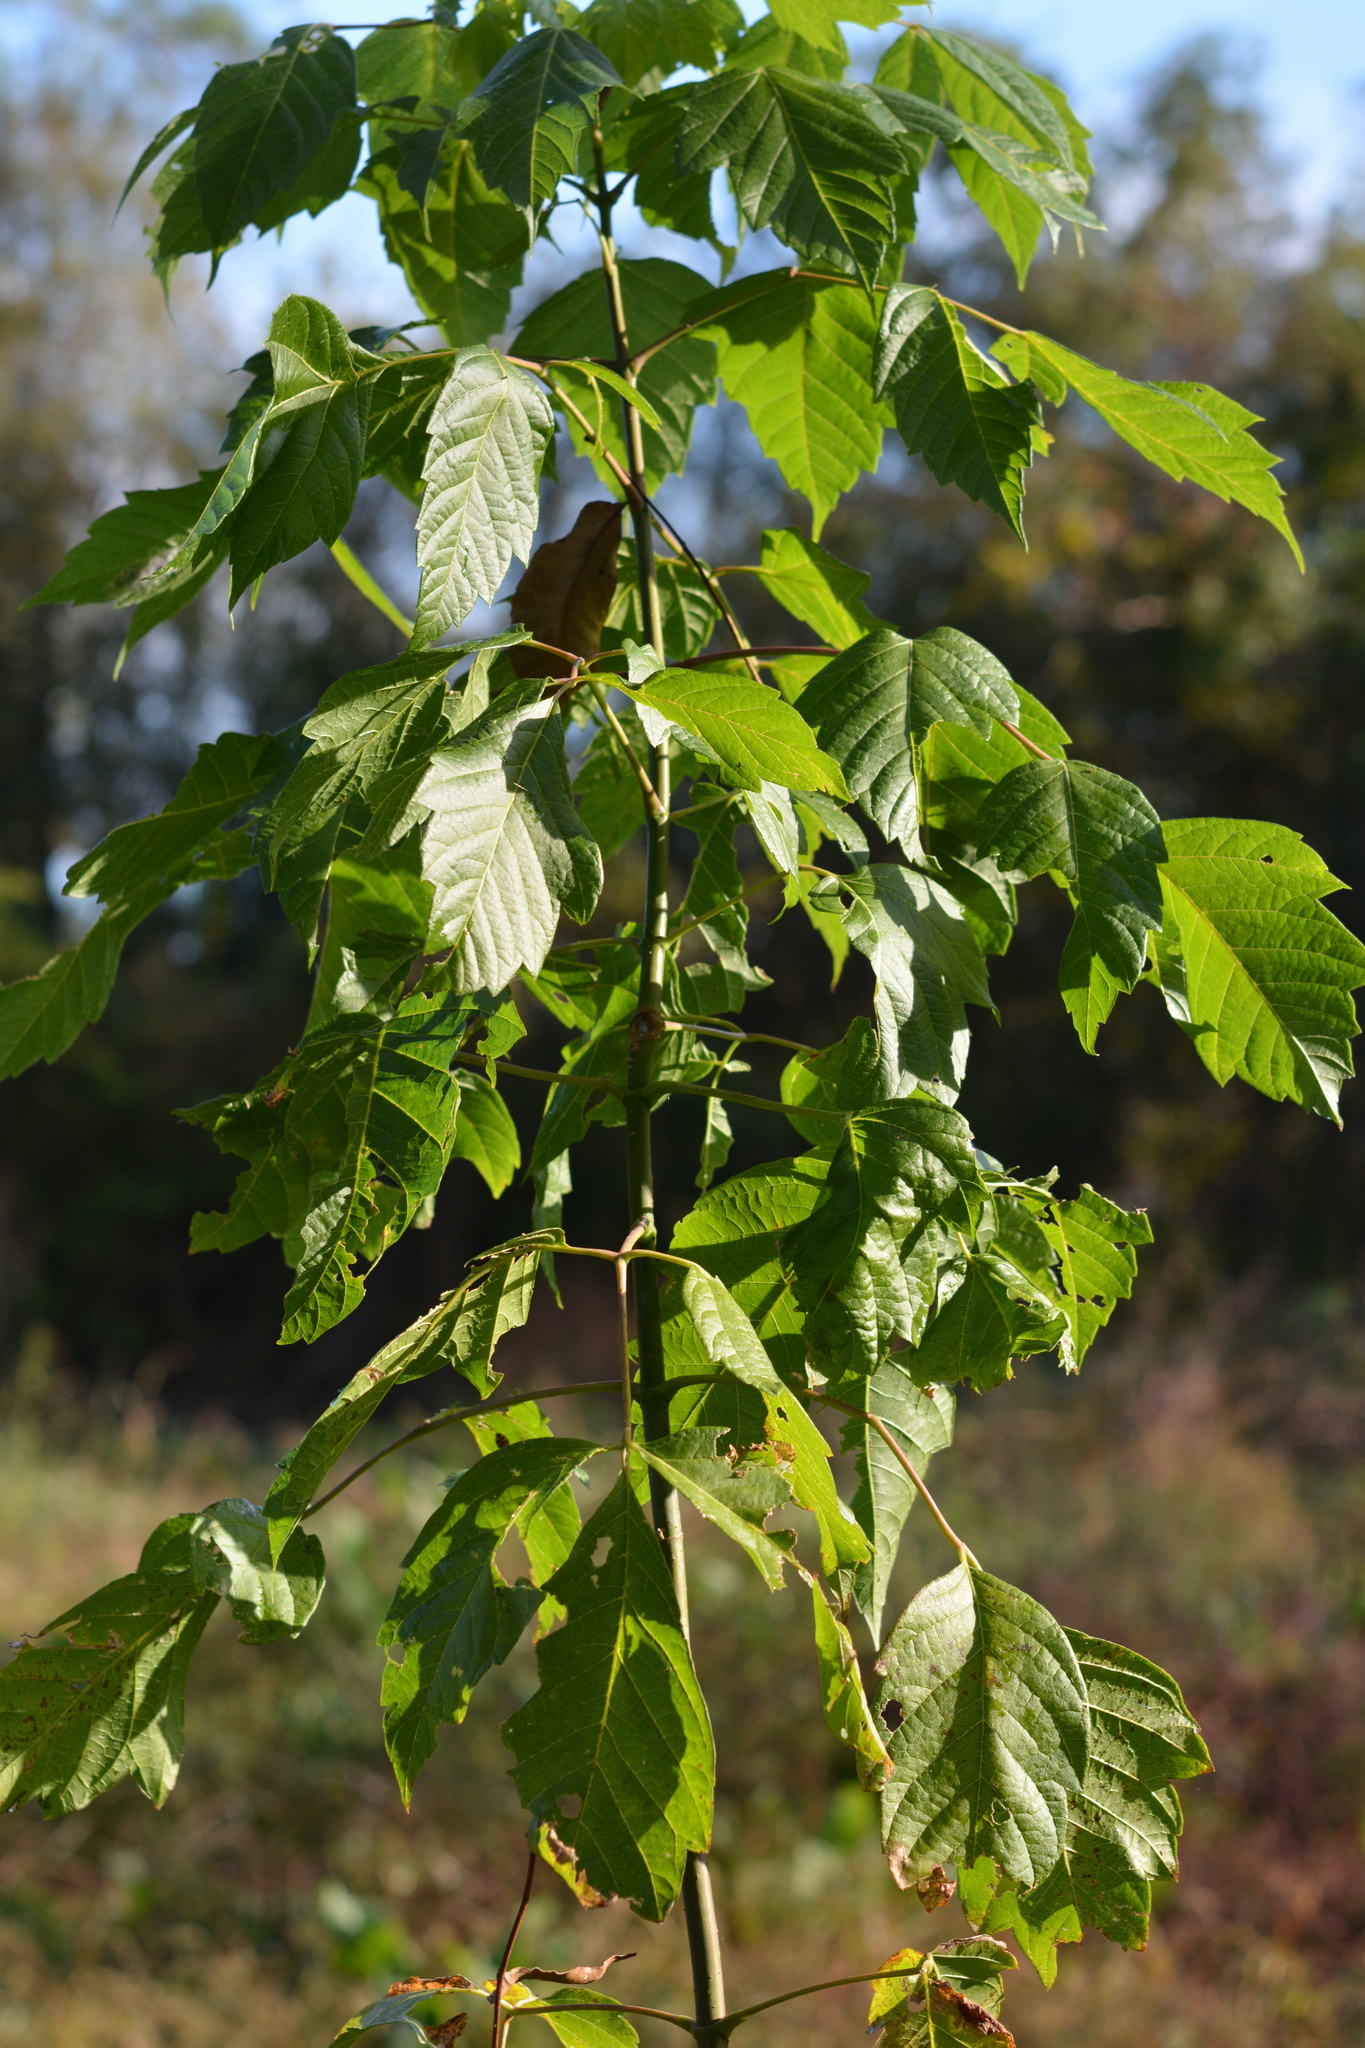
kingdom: Plantae
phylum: Tracheophyta
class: Magnoliopsida
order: Sapindales
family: Sapindaceae
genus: Acer
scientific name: Acer negundo
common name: Ashleaf maple
